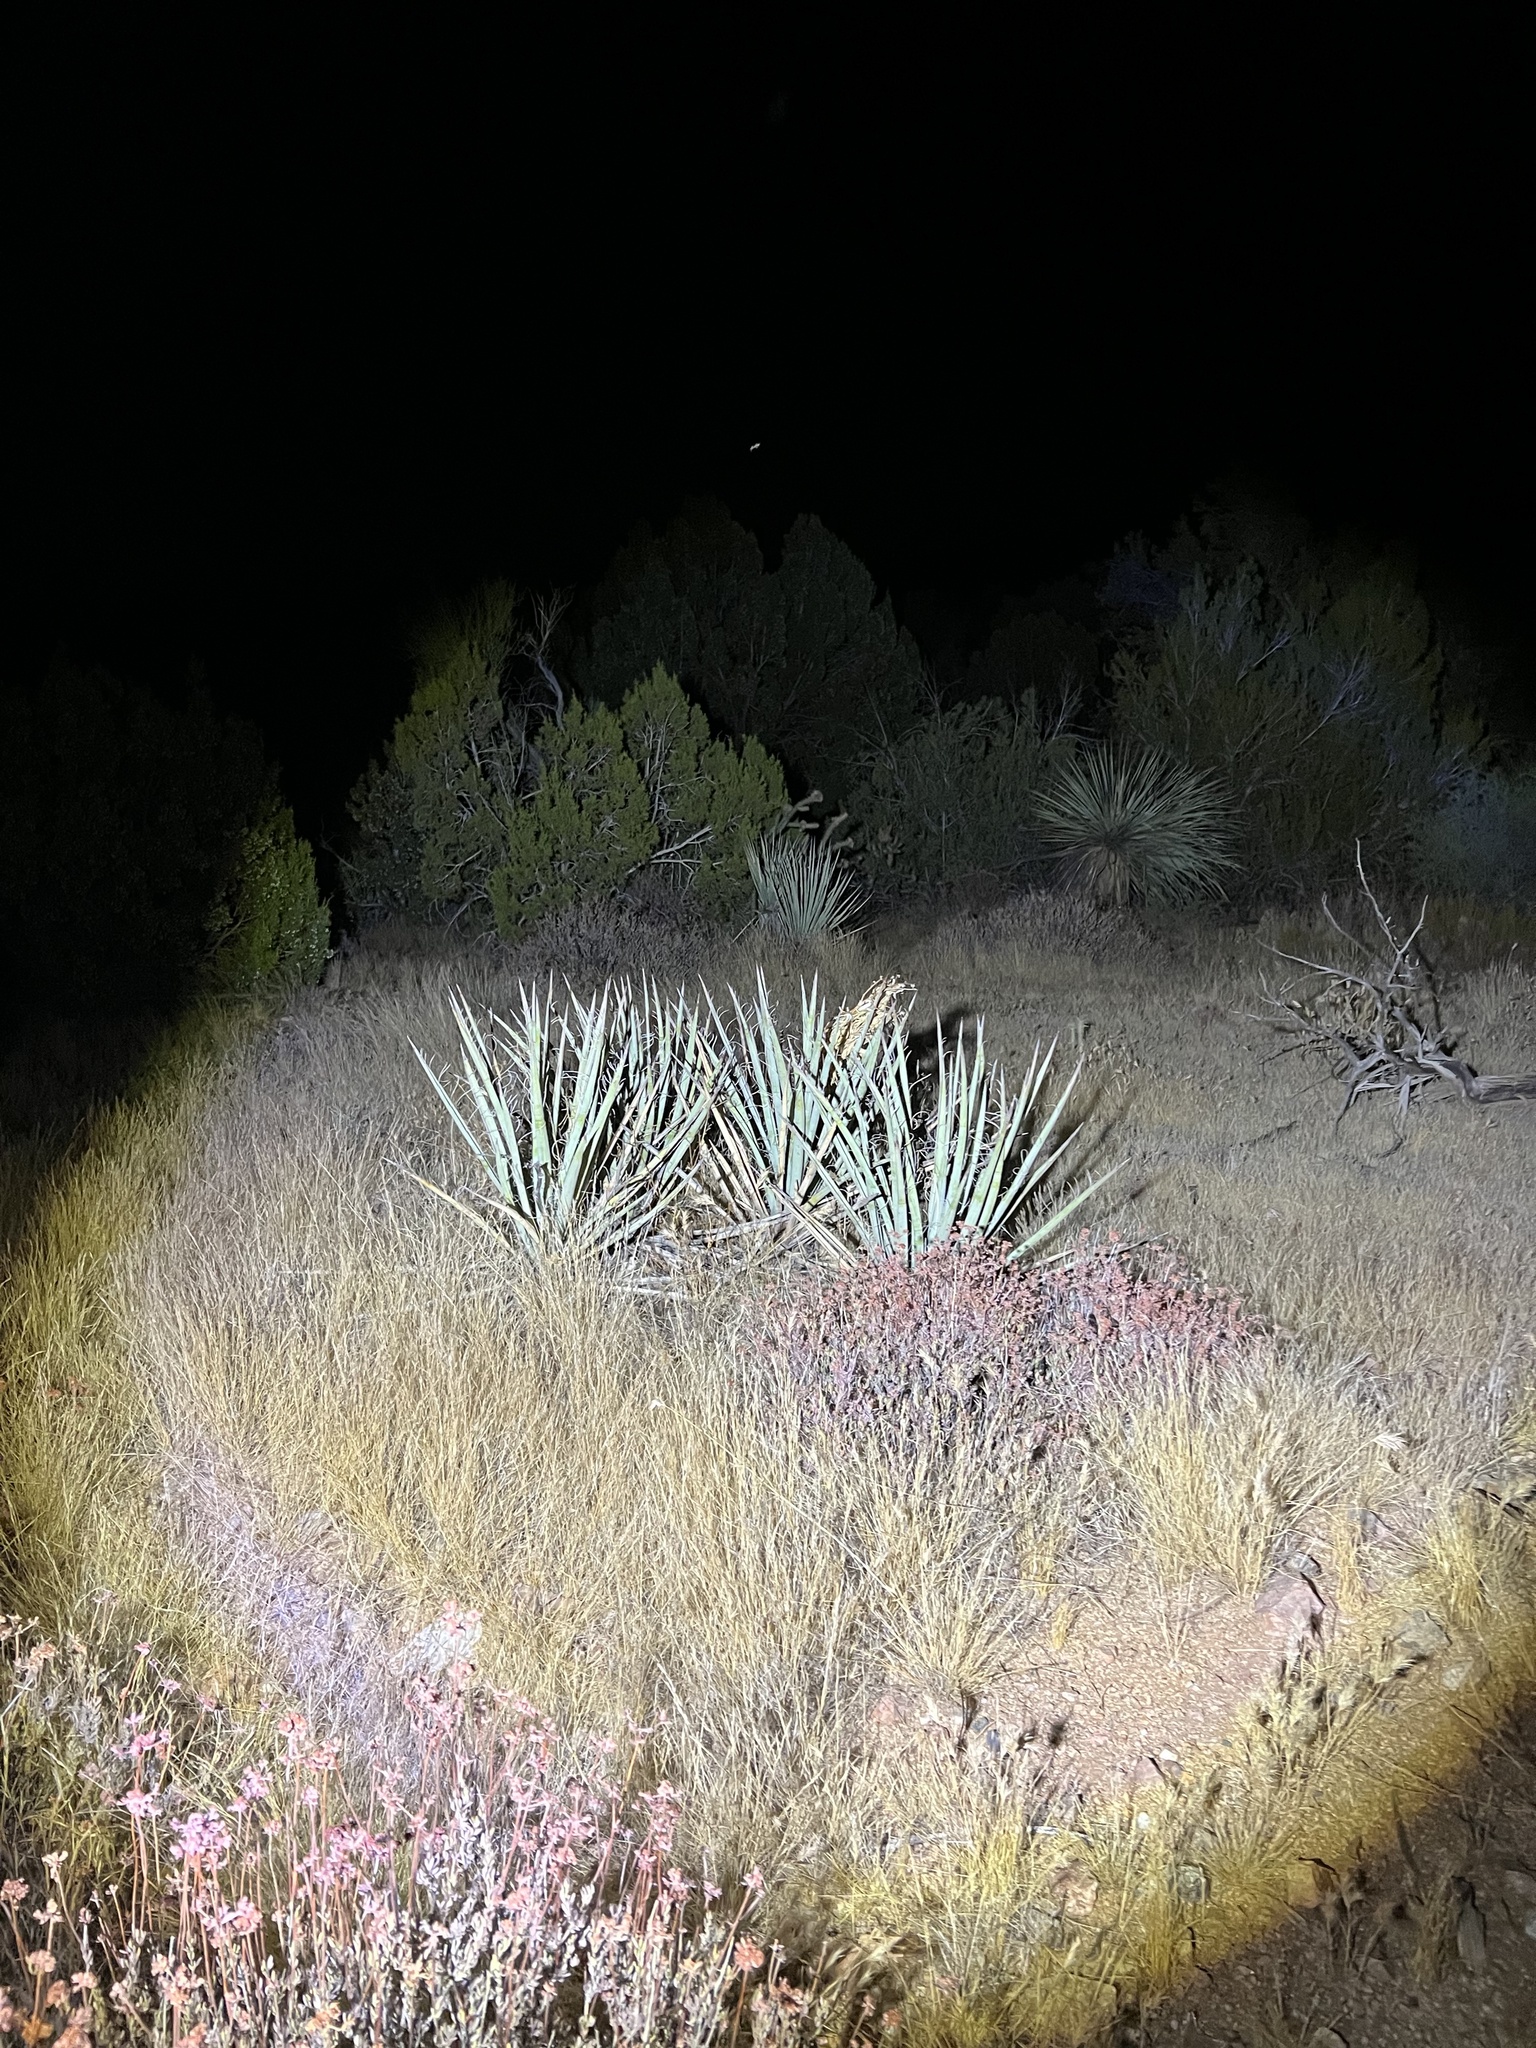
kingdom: Plantae
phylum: Tracheophyta
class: Liliopsida
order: Asparagales
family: Asparagaceae
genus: Yucca
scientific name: Yucca baccata
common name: Banana yucca
